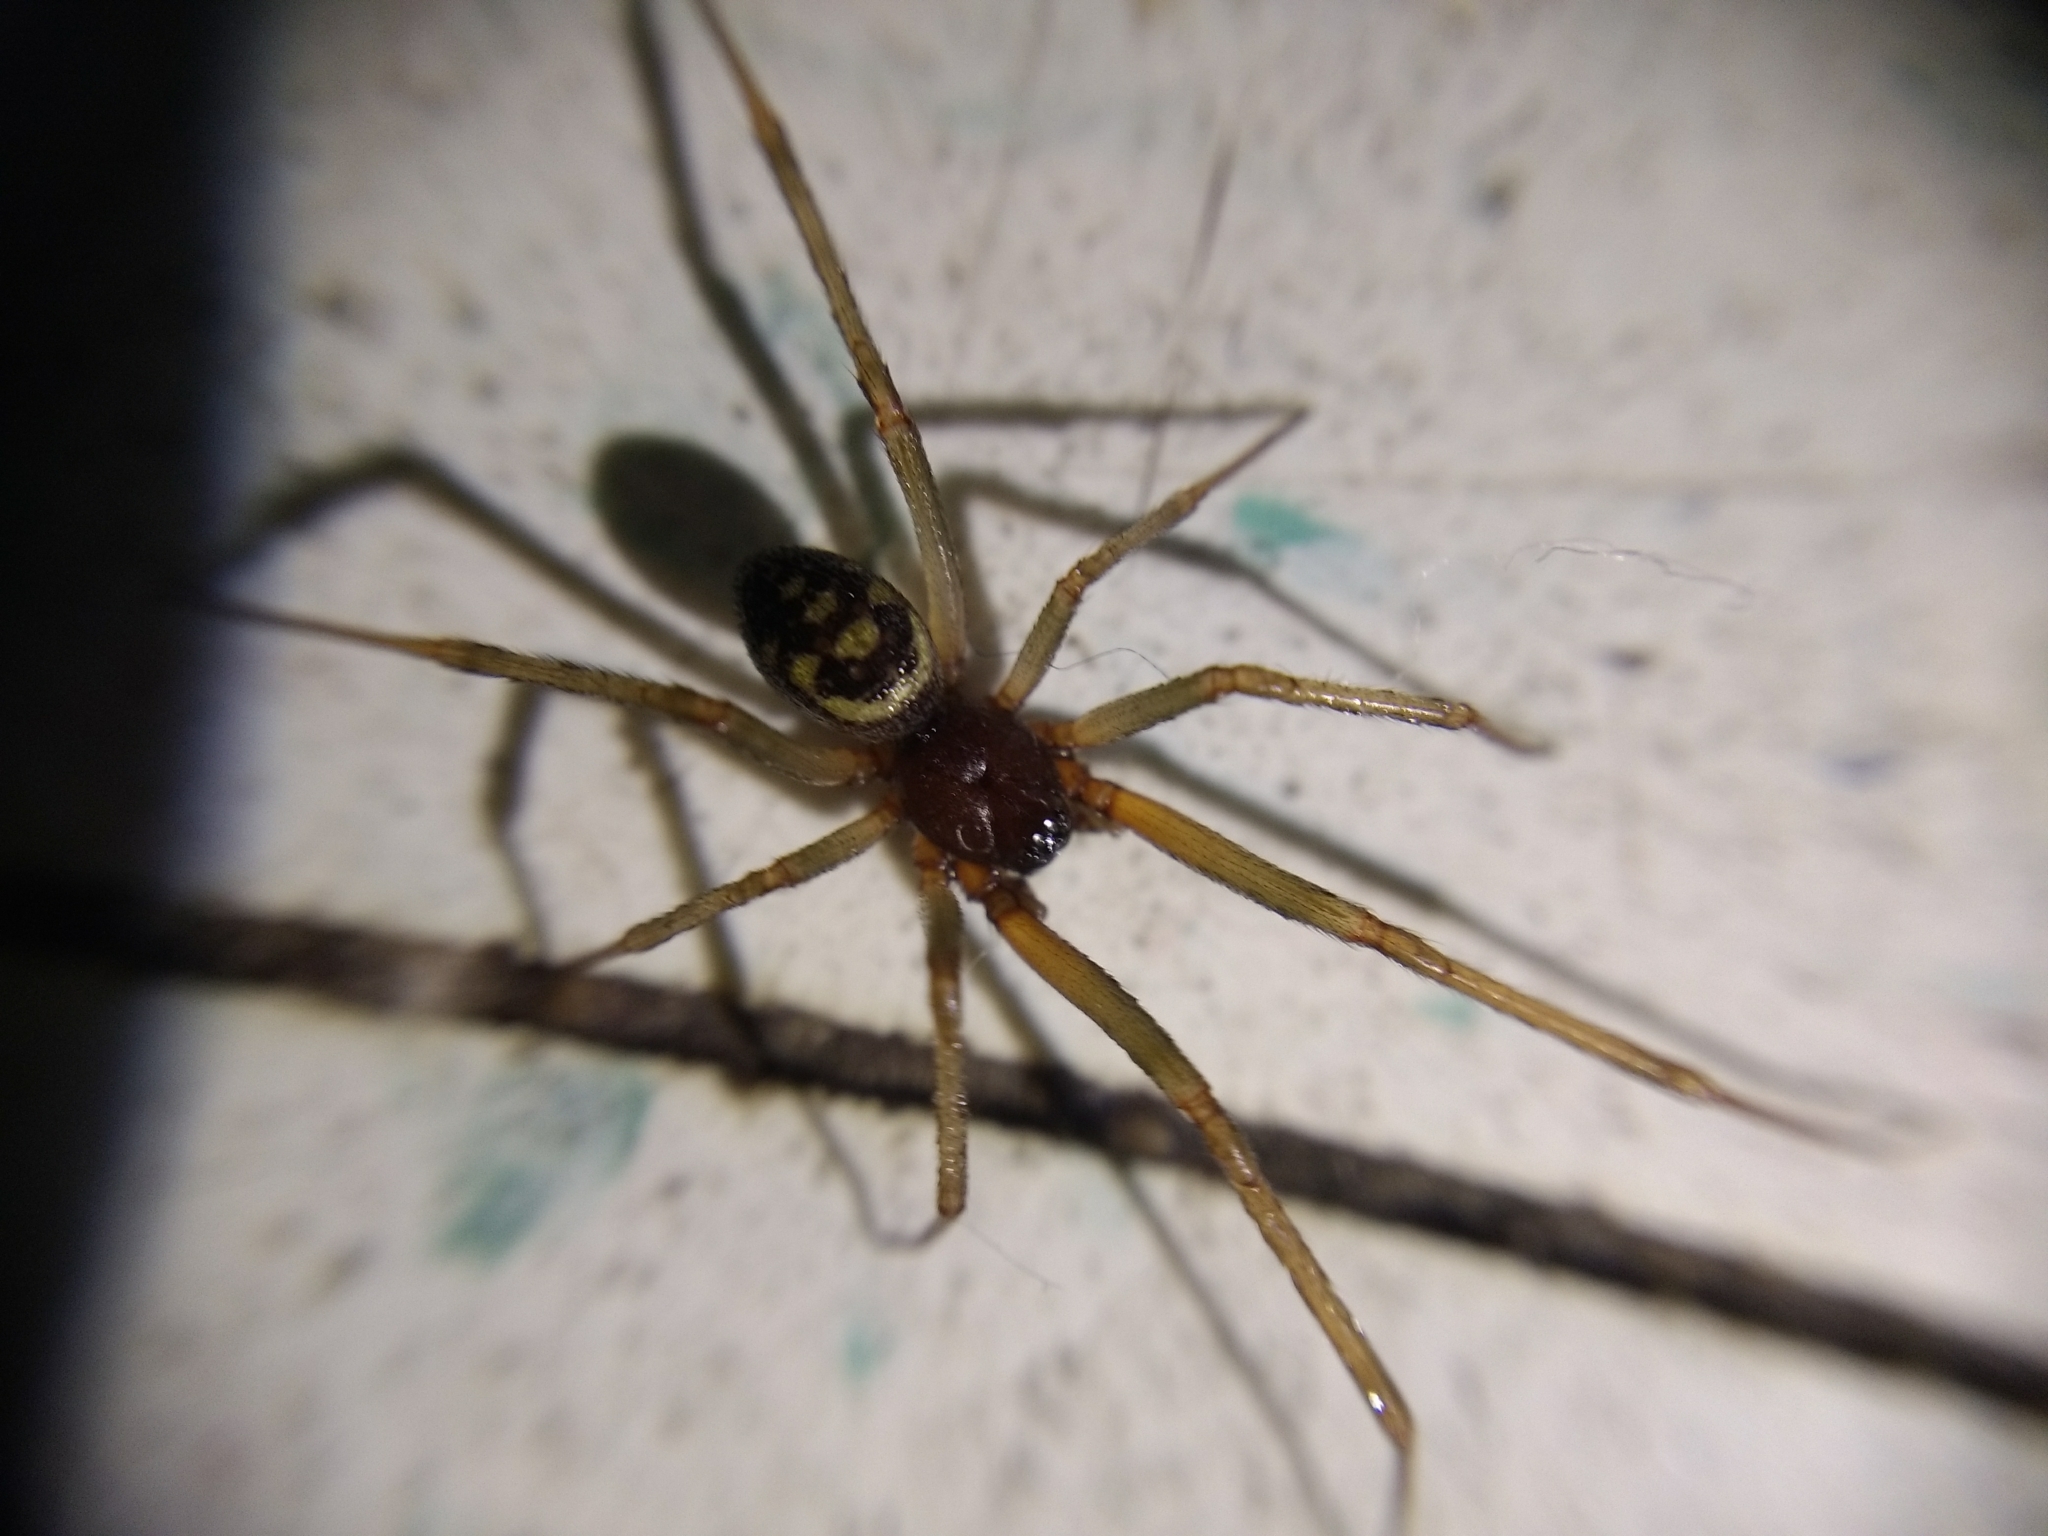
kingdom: Animalia
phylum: Arthropoda
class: Arachnida
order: Araneae
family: Theridiidae
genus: Steatoda
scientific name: Steatoda grossa
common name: False black widow
